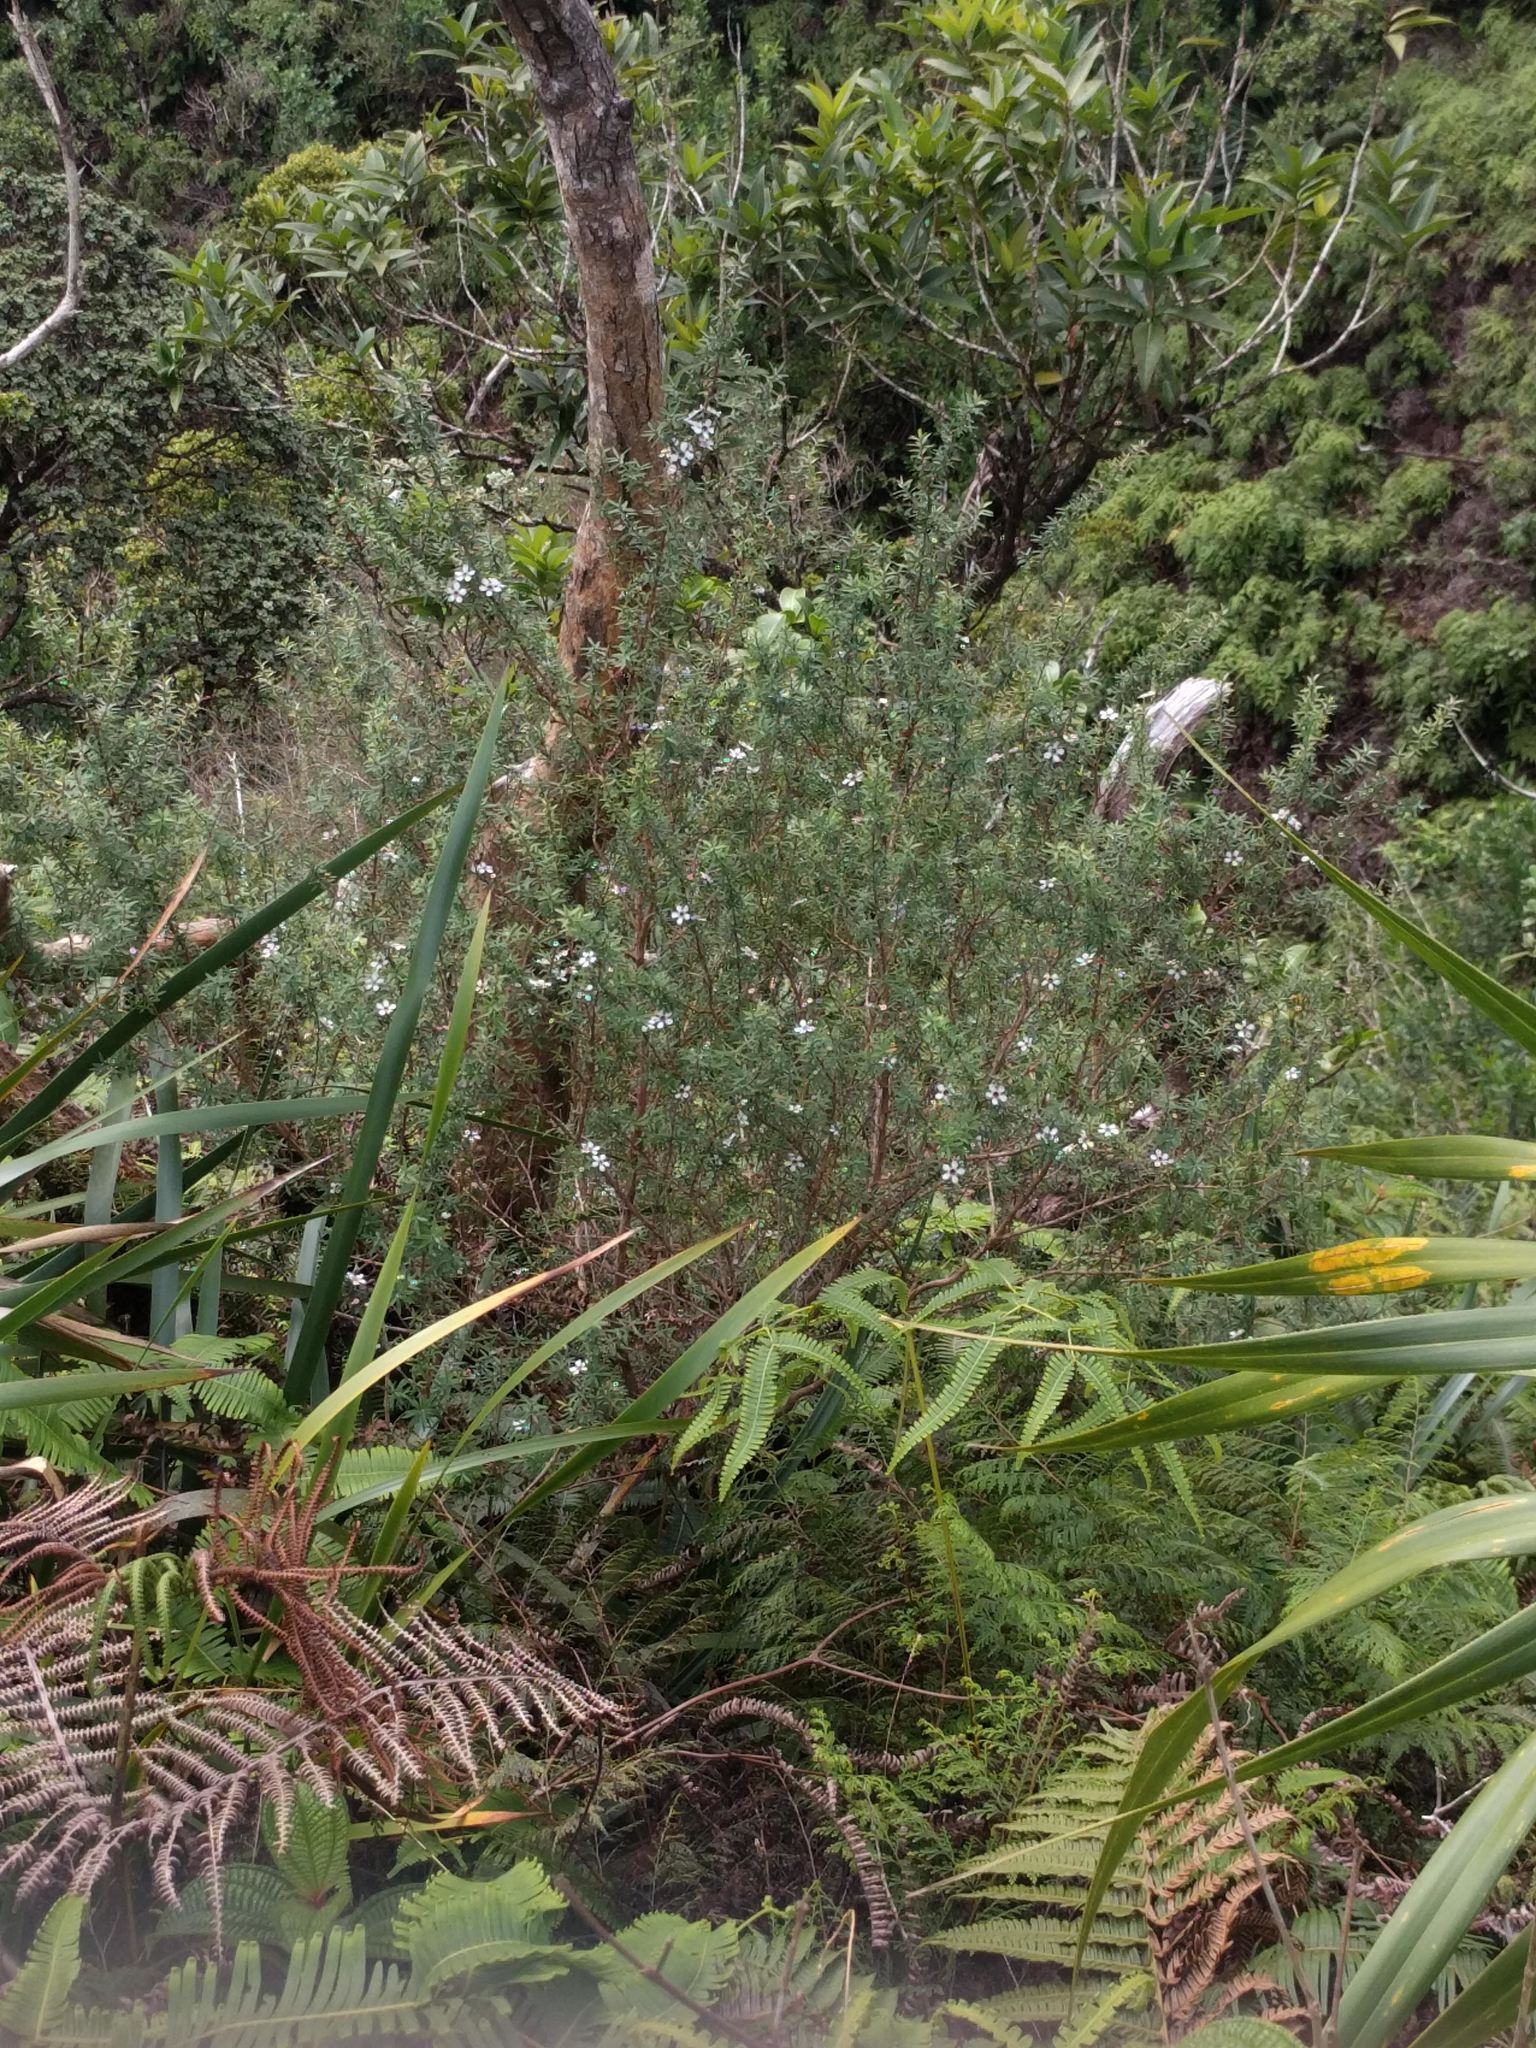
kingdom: Plantae
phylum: Tracheophyta
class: Magnoliopsida
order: Myrtales
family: Myrtaceae
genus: Leptospermum
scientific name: Leptospermum scoparium
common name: Broom tea-tree
